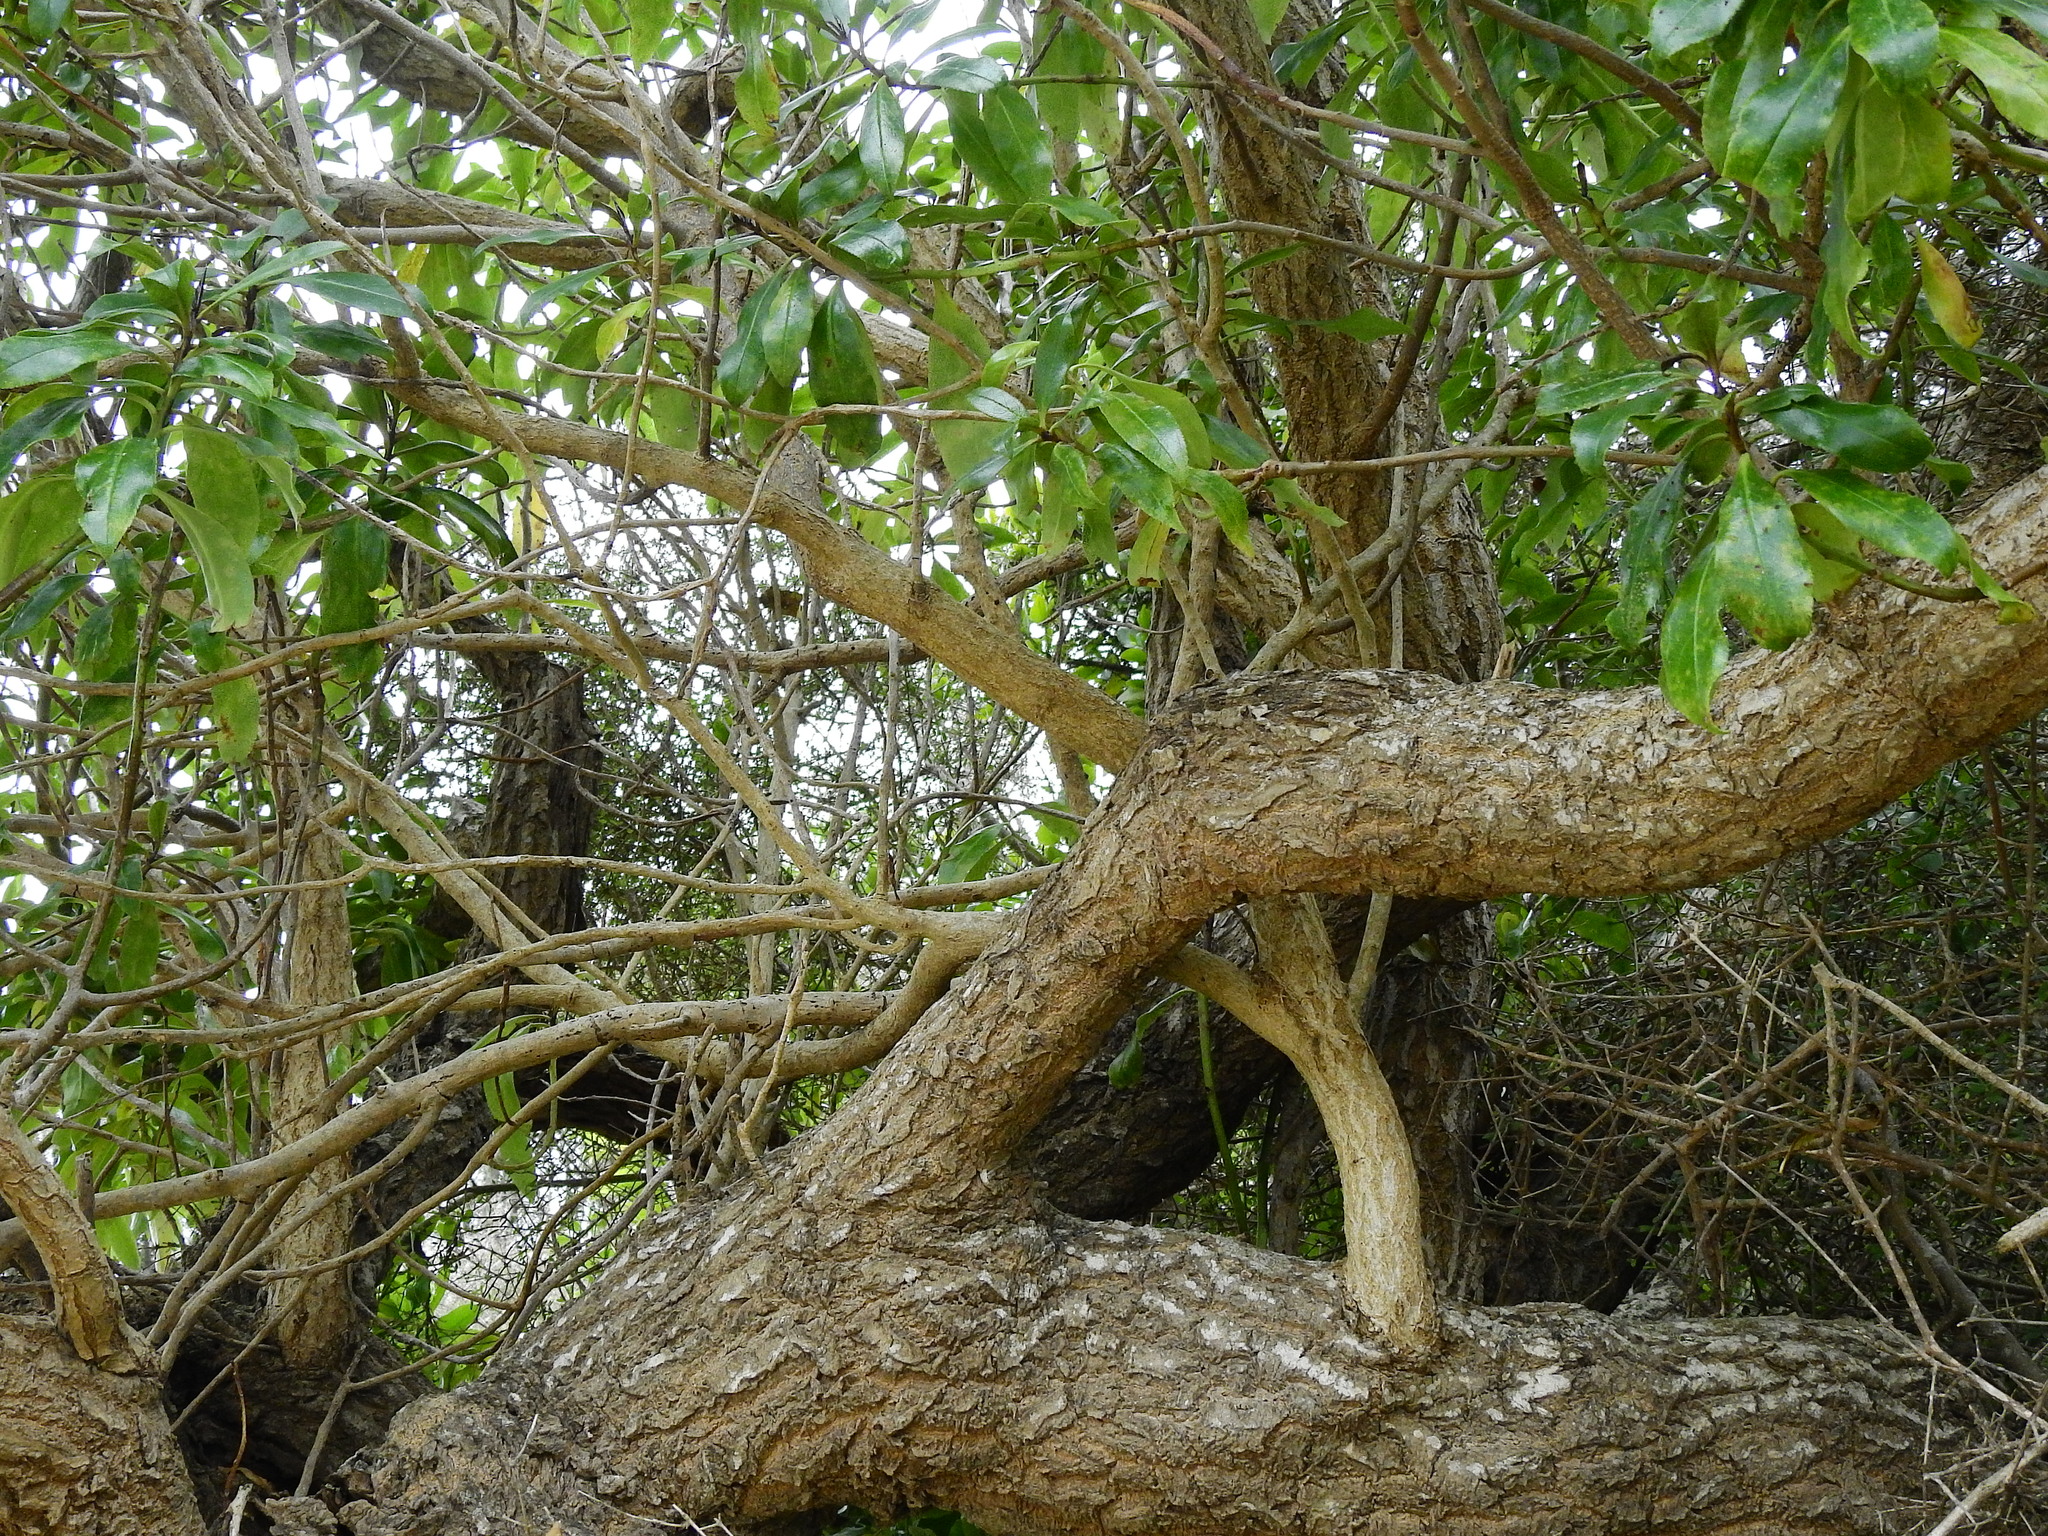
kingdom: Plantae
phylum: Tracheophyta
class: Magnoliopsida
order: Lamiales
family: Scrophulariaceae
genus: Myoporum
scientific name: Myoporum laetum
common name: Ngaio tree
